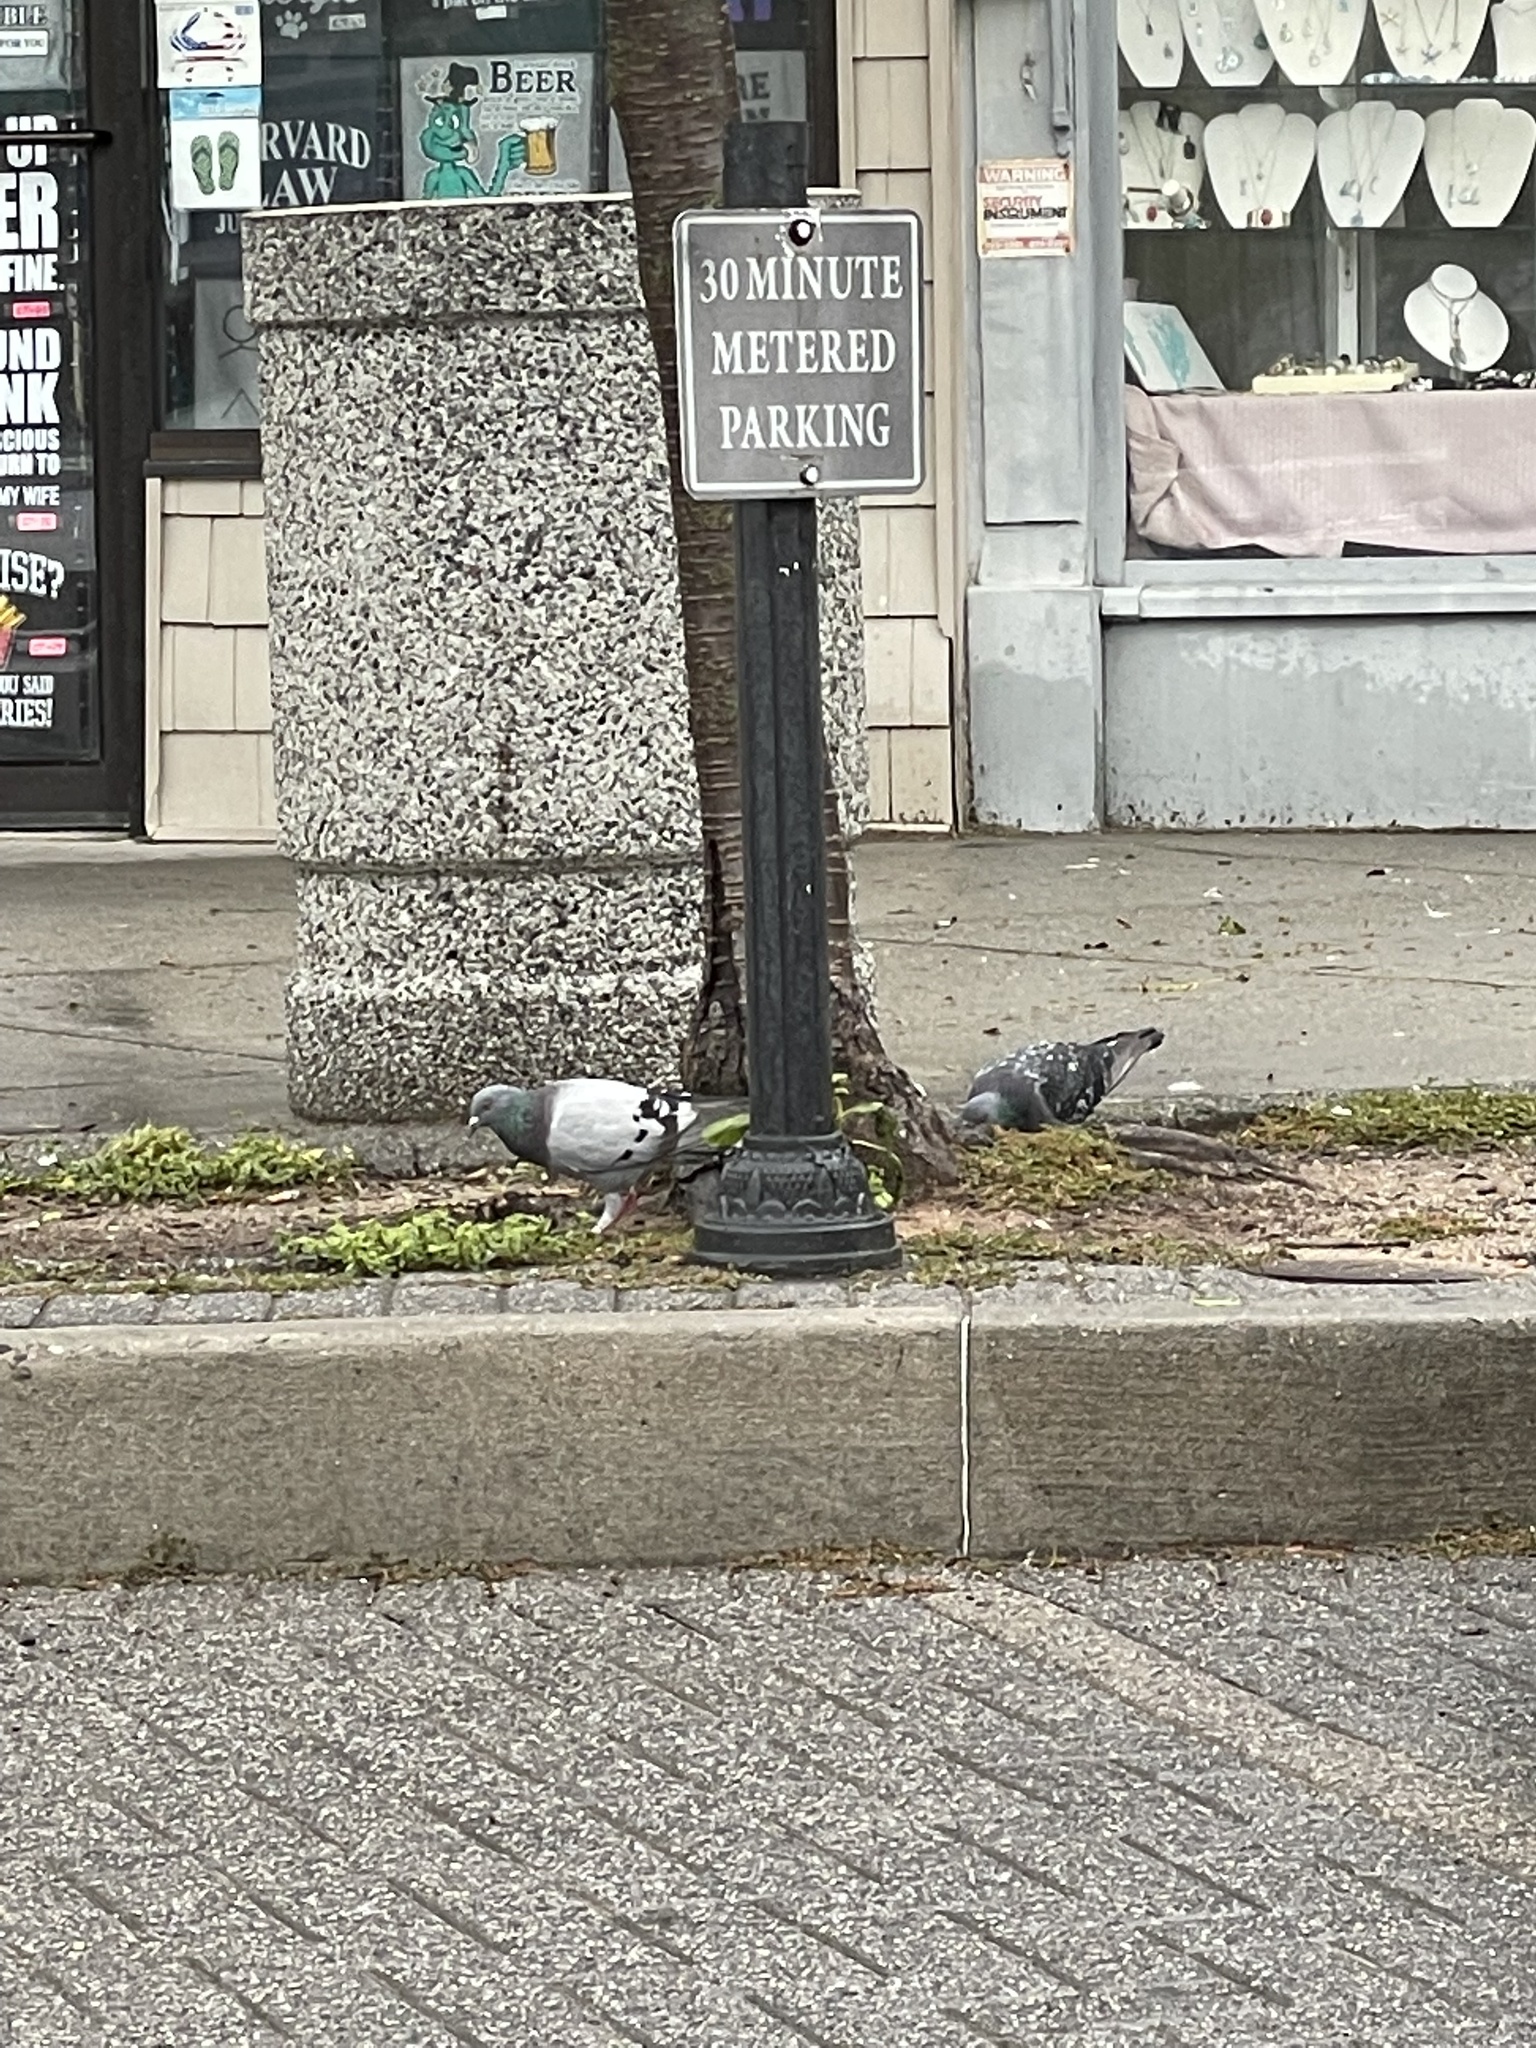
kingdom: Animalia
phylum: Chordata
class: Aves
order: Columbiformes
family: Columbidae
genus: Columba
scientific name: Columba livia
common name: Rock pigeon
